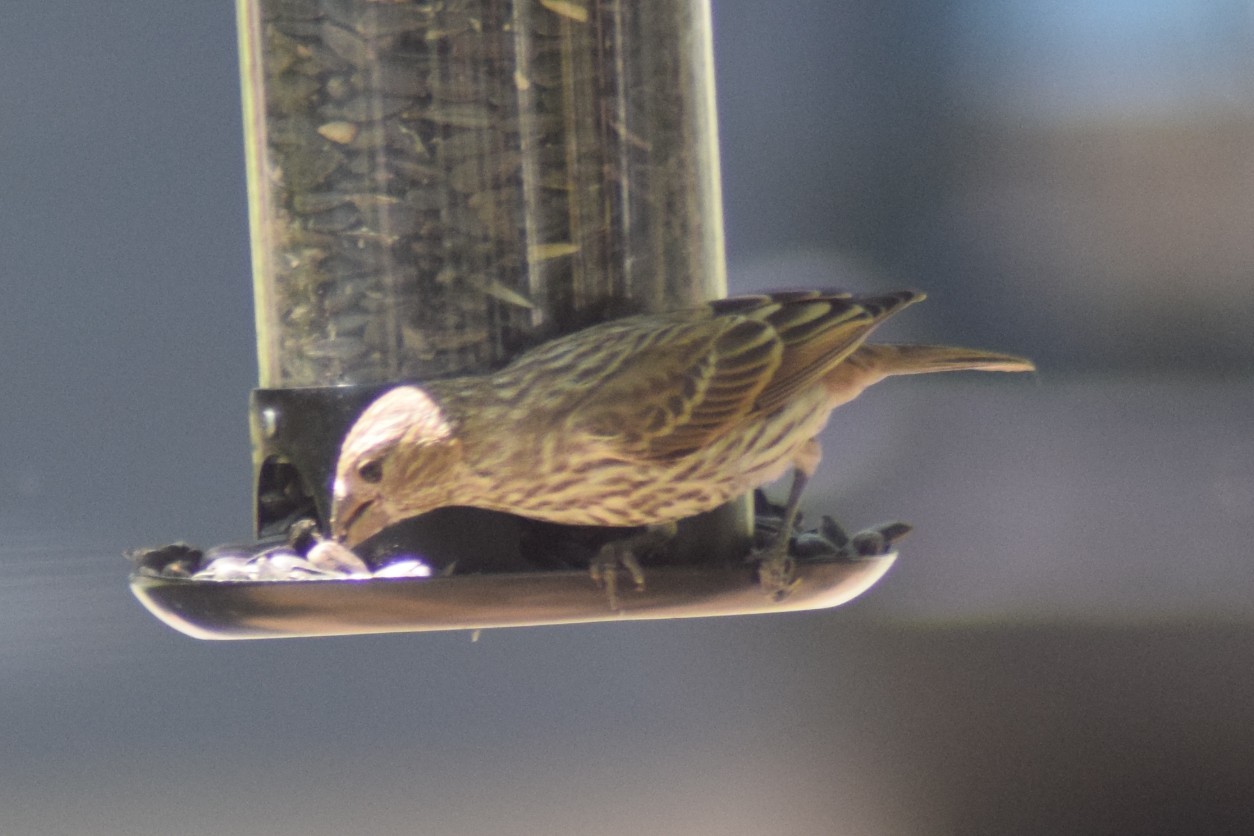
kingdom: Animalia
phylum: Chordata
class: Aves
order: Passeriformes
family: Fringillidae
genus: Haemorhous
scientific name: Haemorhous mexicanus
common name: House finch
